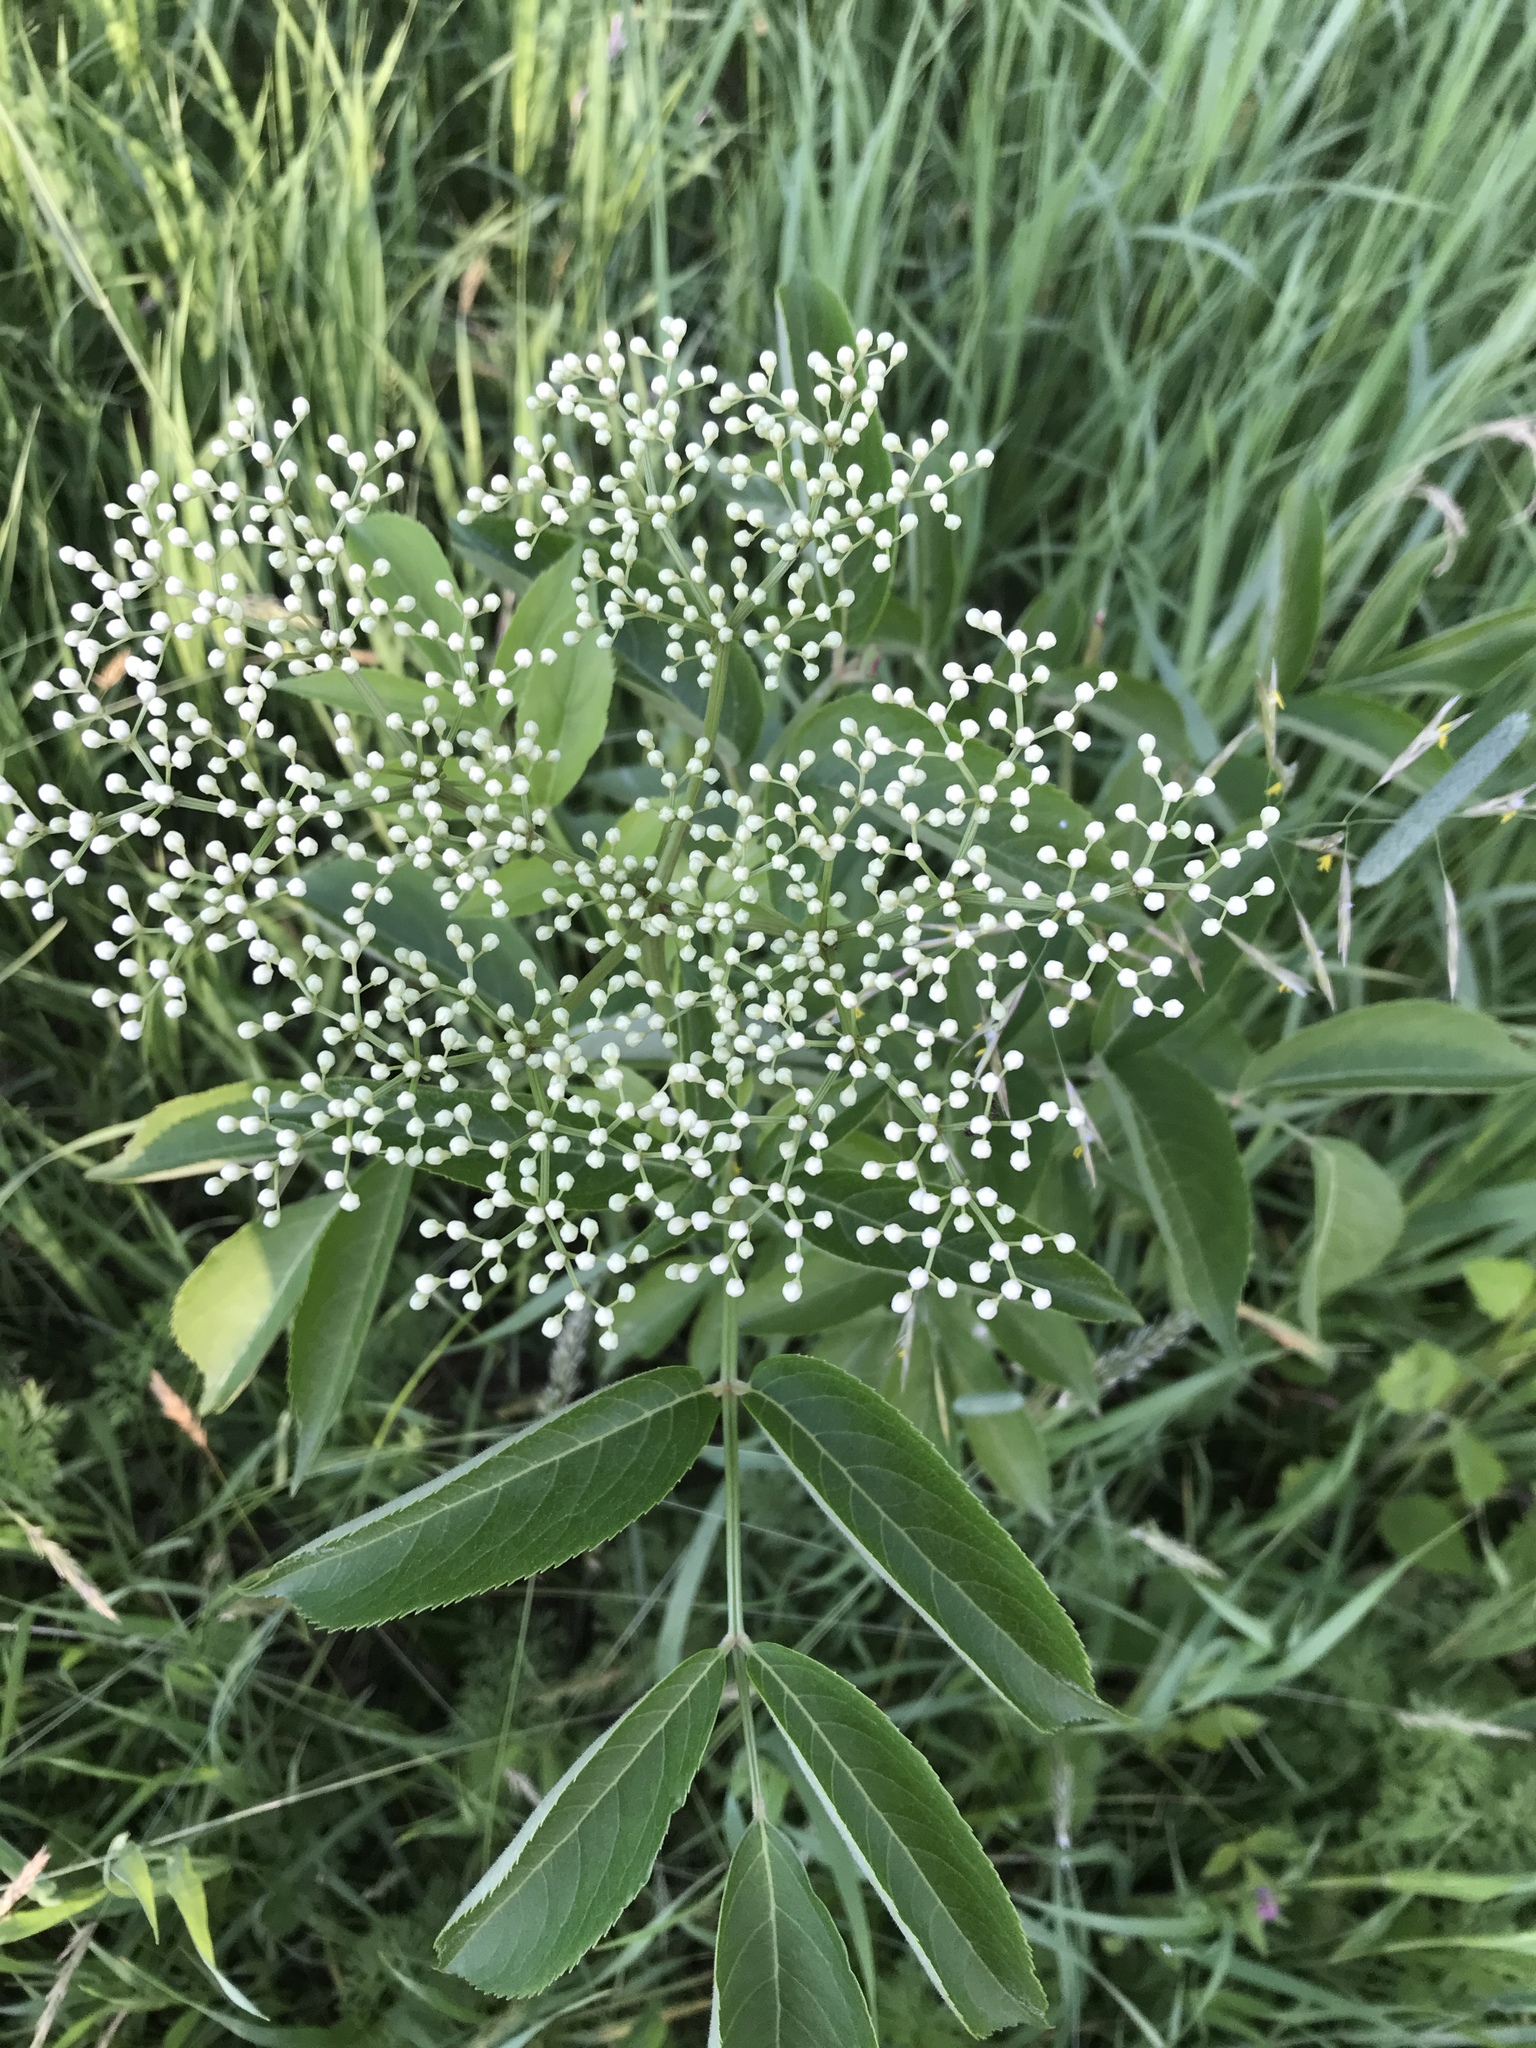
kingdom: Plantae
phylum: Tracheophyta
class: Magnoliopsida
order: Dipsacales
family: Viburnaceae
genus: Sambucus
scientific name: Sambucus canadensis
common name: American elder
